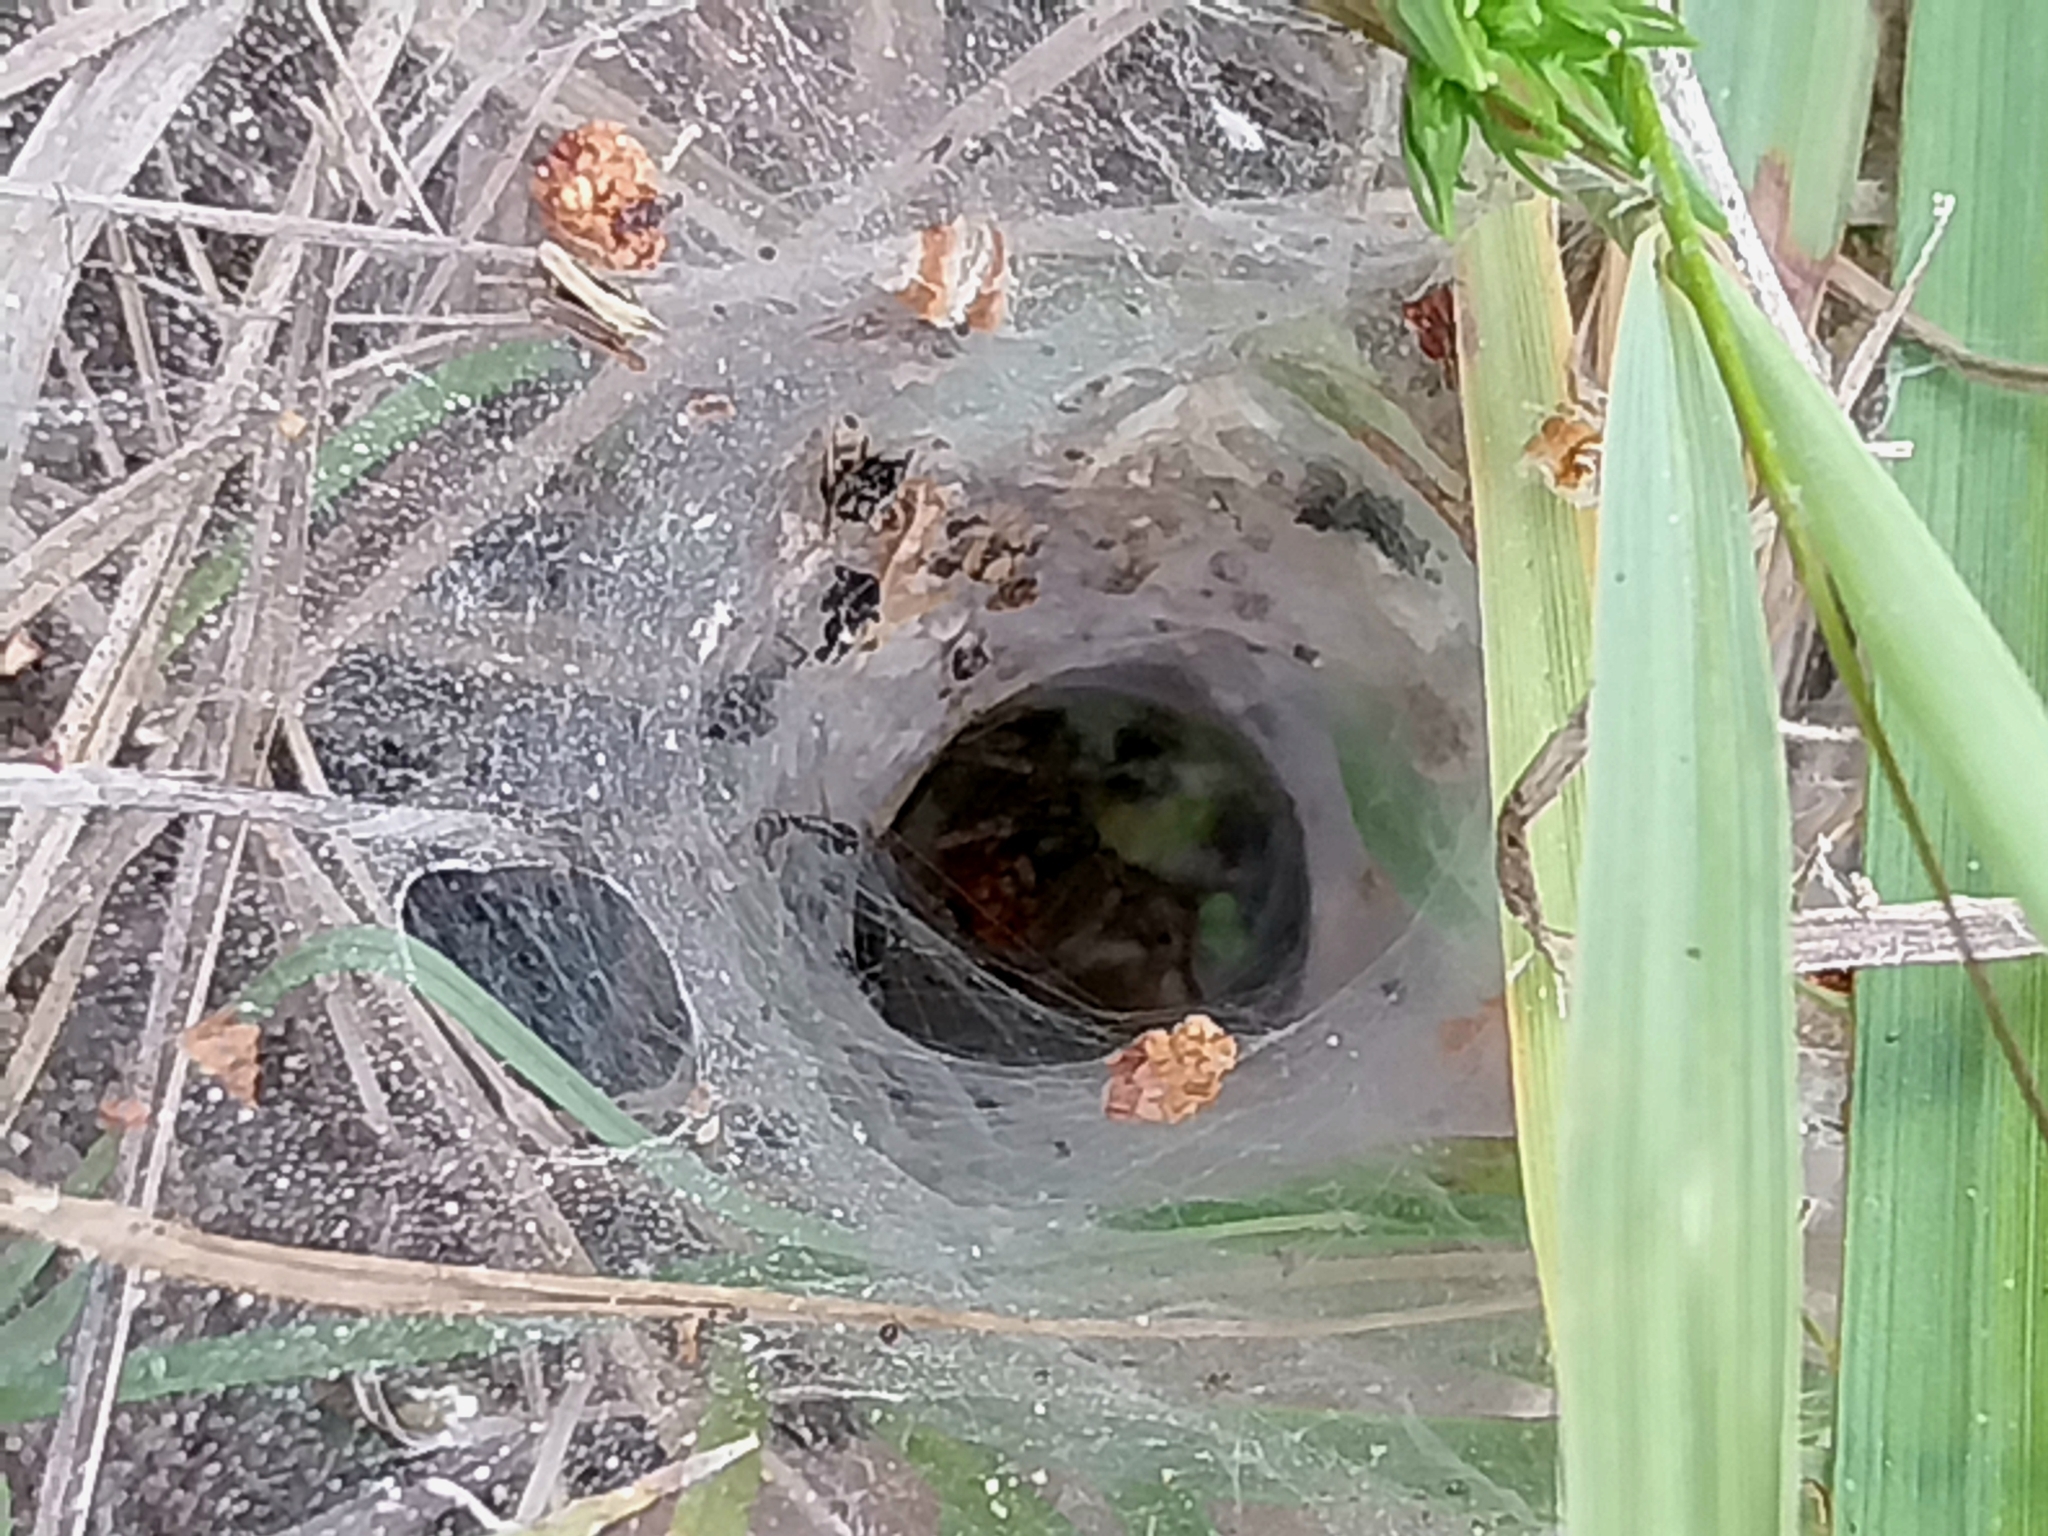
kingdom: Animalia
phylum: Arthropoda
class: Arachnida
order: Araneae
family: Agelenidae
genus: Agelena
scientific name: Agelena labyrinthica
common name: Labyrinth spider
